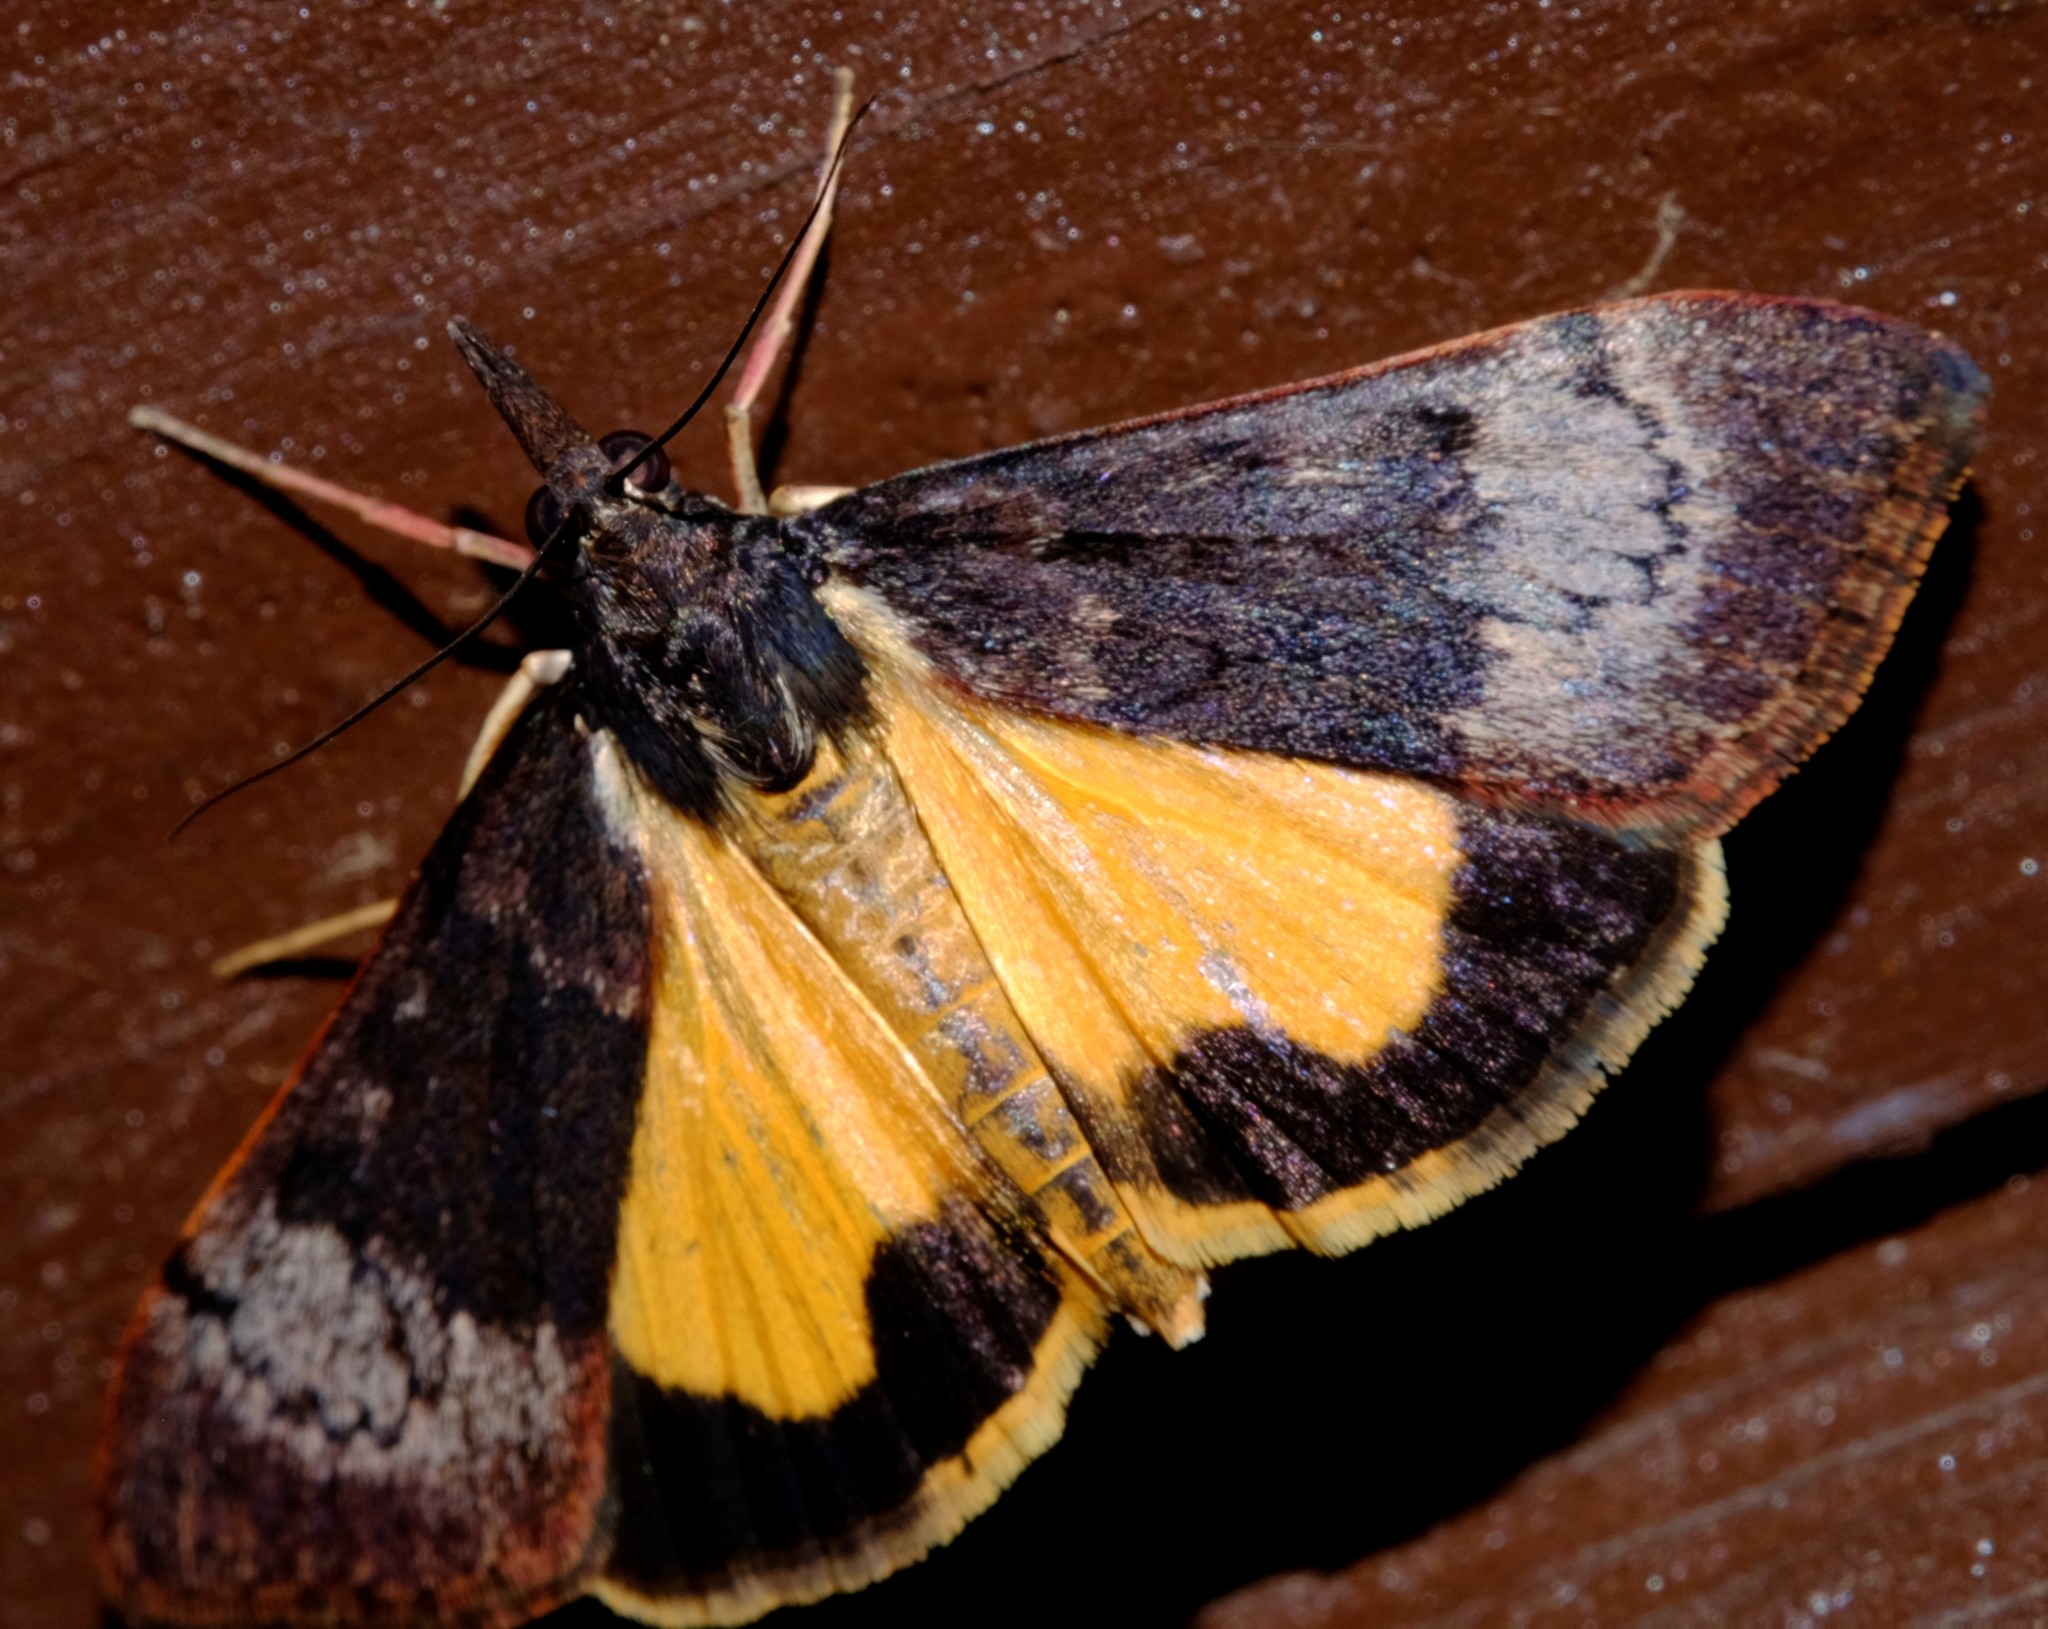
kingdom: Animalia
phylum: Arthropoda
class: Insecta
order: Lepidoptera
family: Crambidae
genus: Uresiphita
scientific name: Uresiphita ornithopteralis
